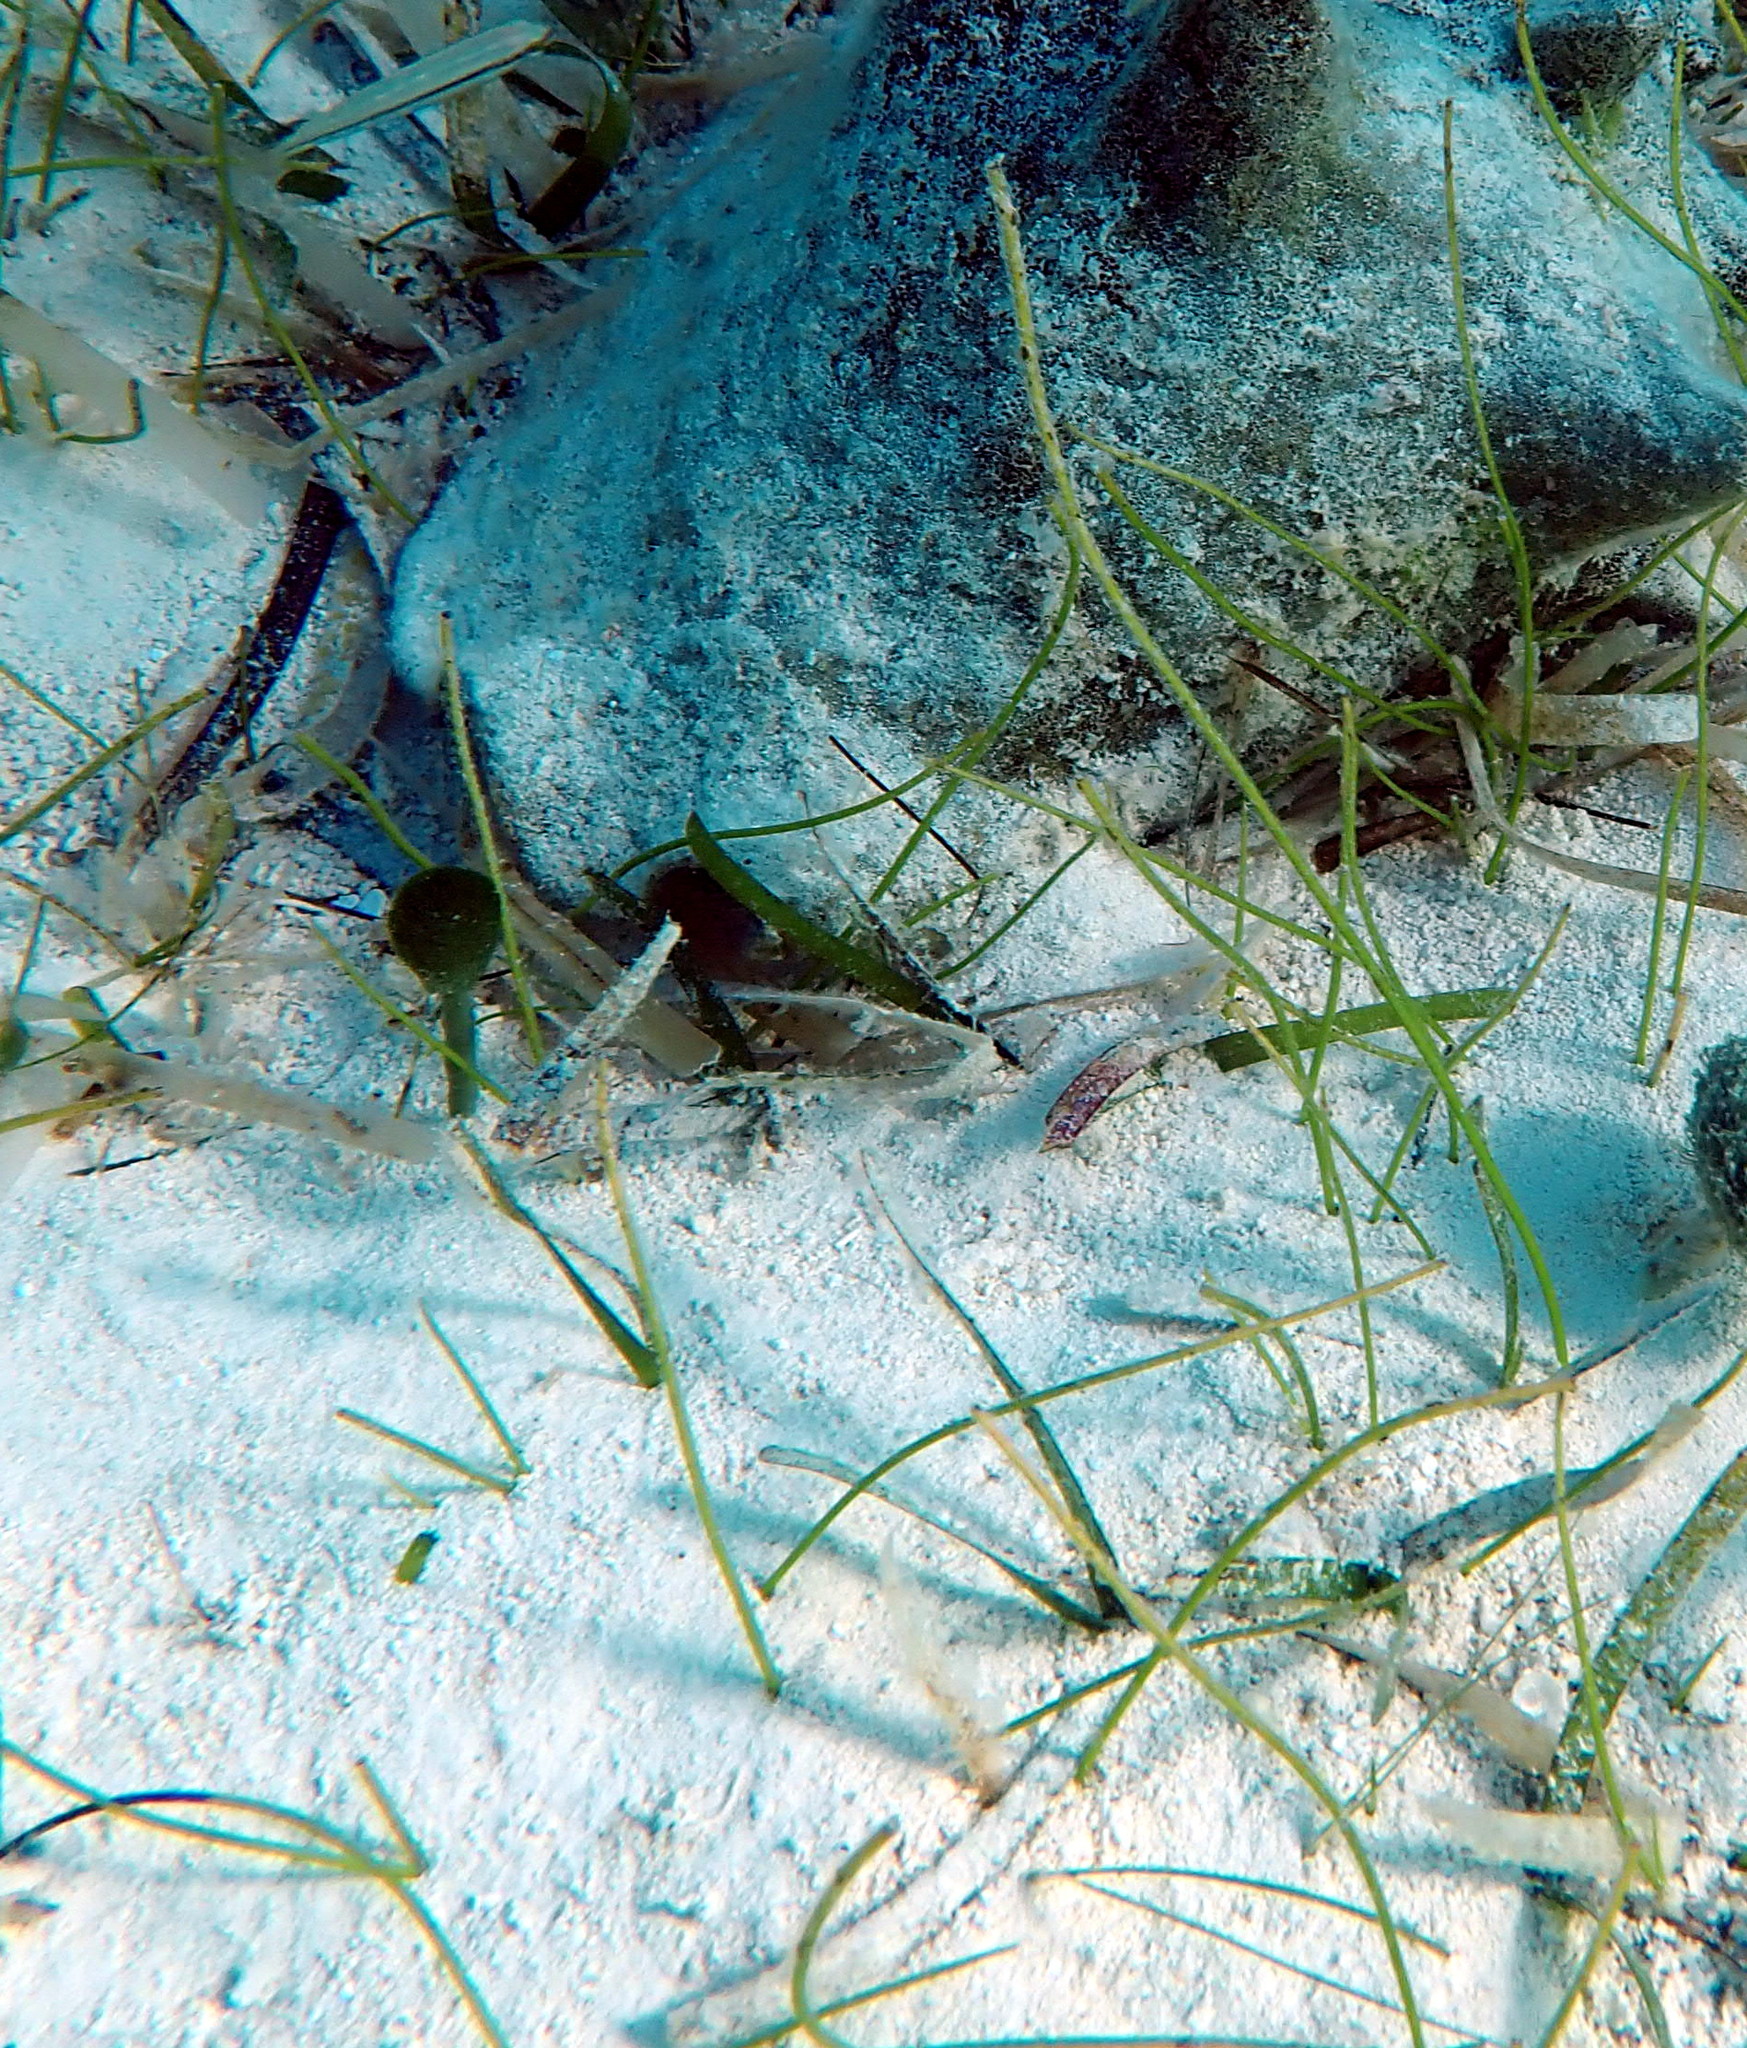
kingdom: Plantae
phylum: Tracheophyta
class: Liliopsida
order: Alismatales
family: Cymodoceaceae
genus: Syringodium
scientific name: Syringodium filiforme
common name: Manatee grass
